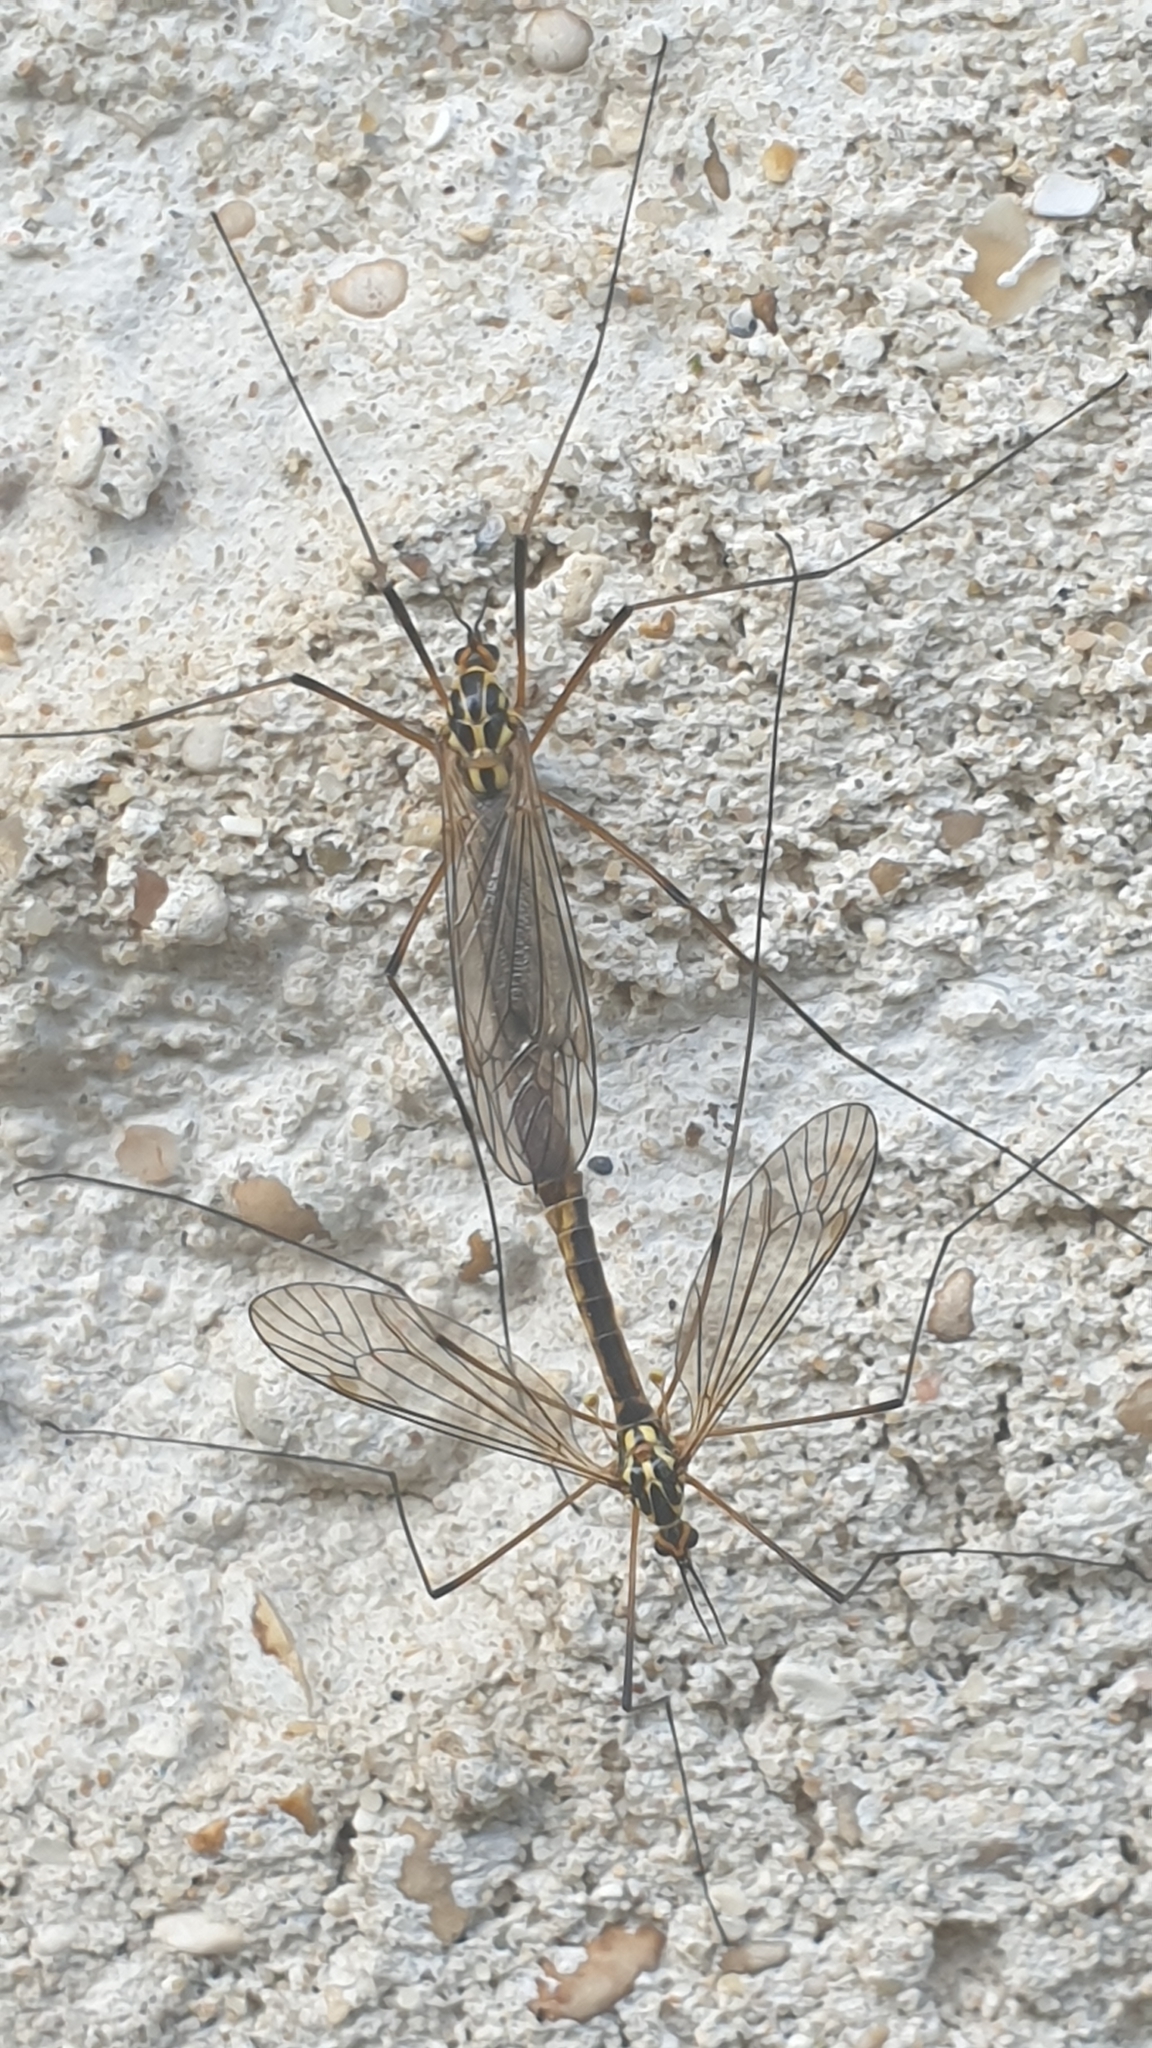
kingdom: Animalia
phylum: Arthropoda
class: Insecta
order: Diptera
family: Tipulidae
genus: Nephrotoma
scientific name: Nephrotoma appendiculata
